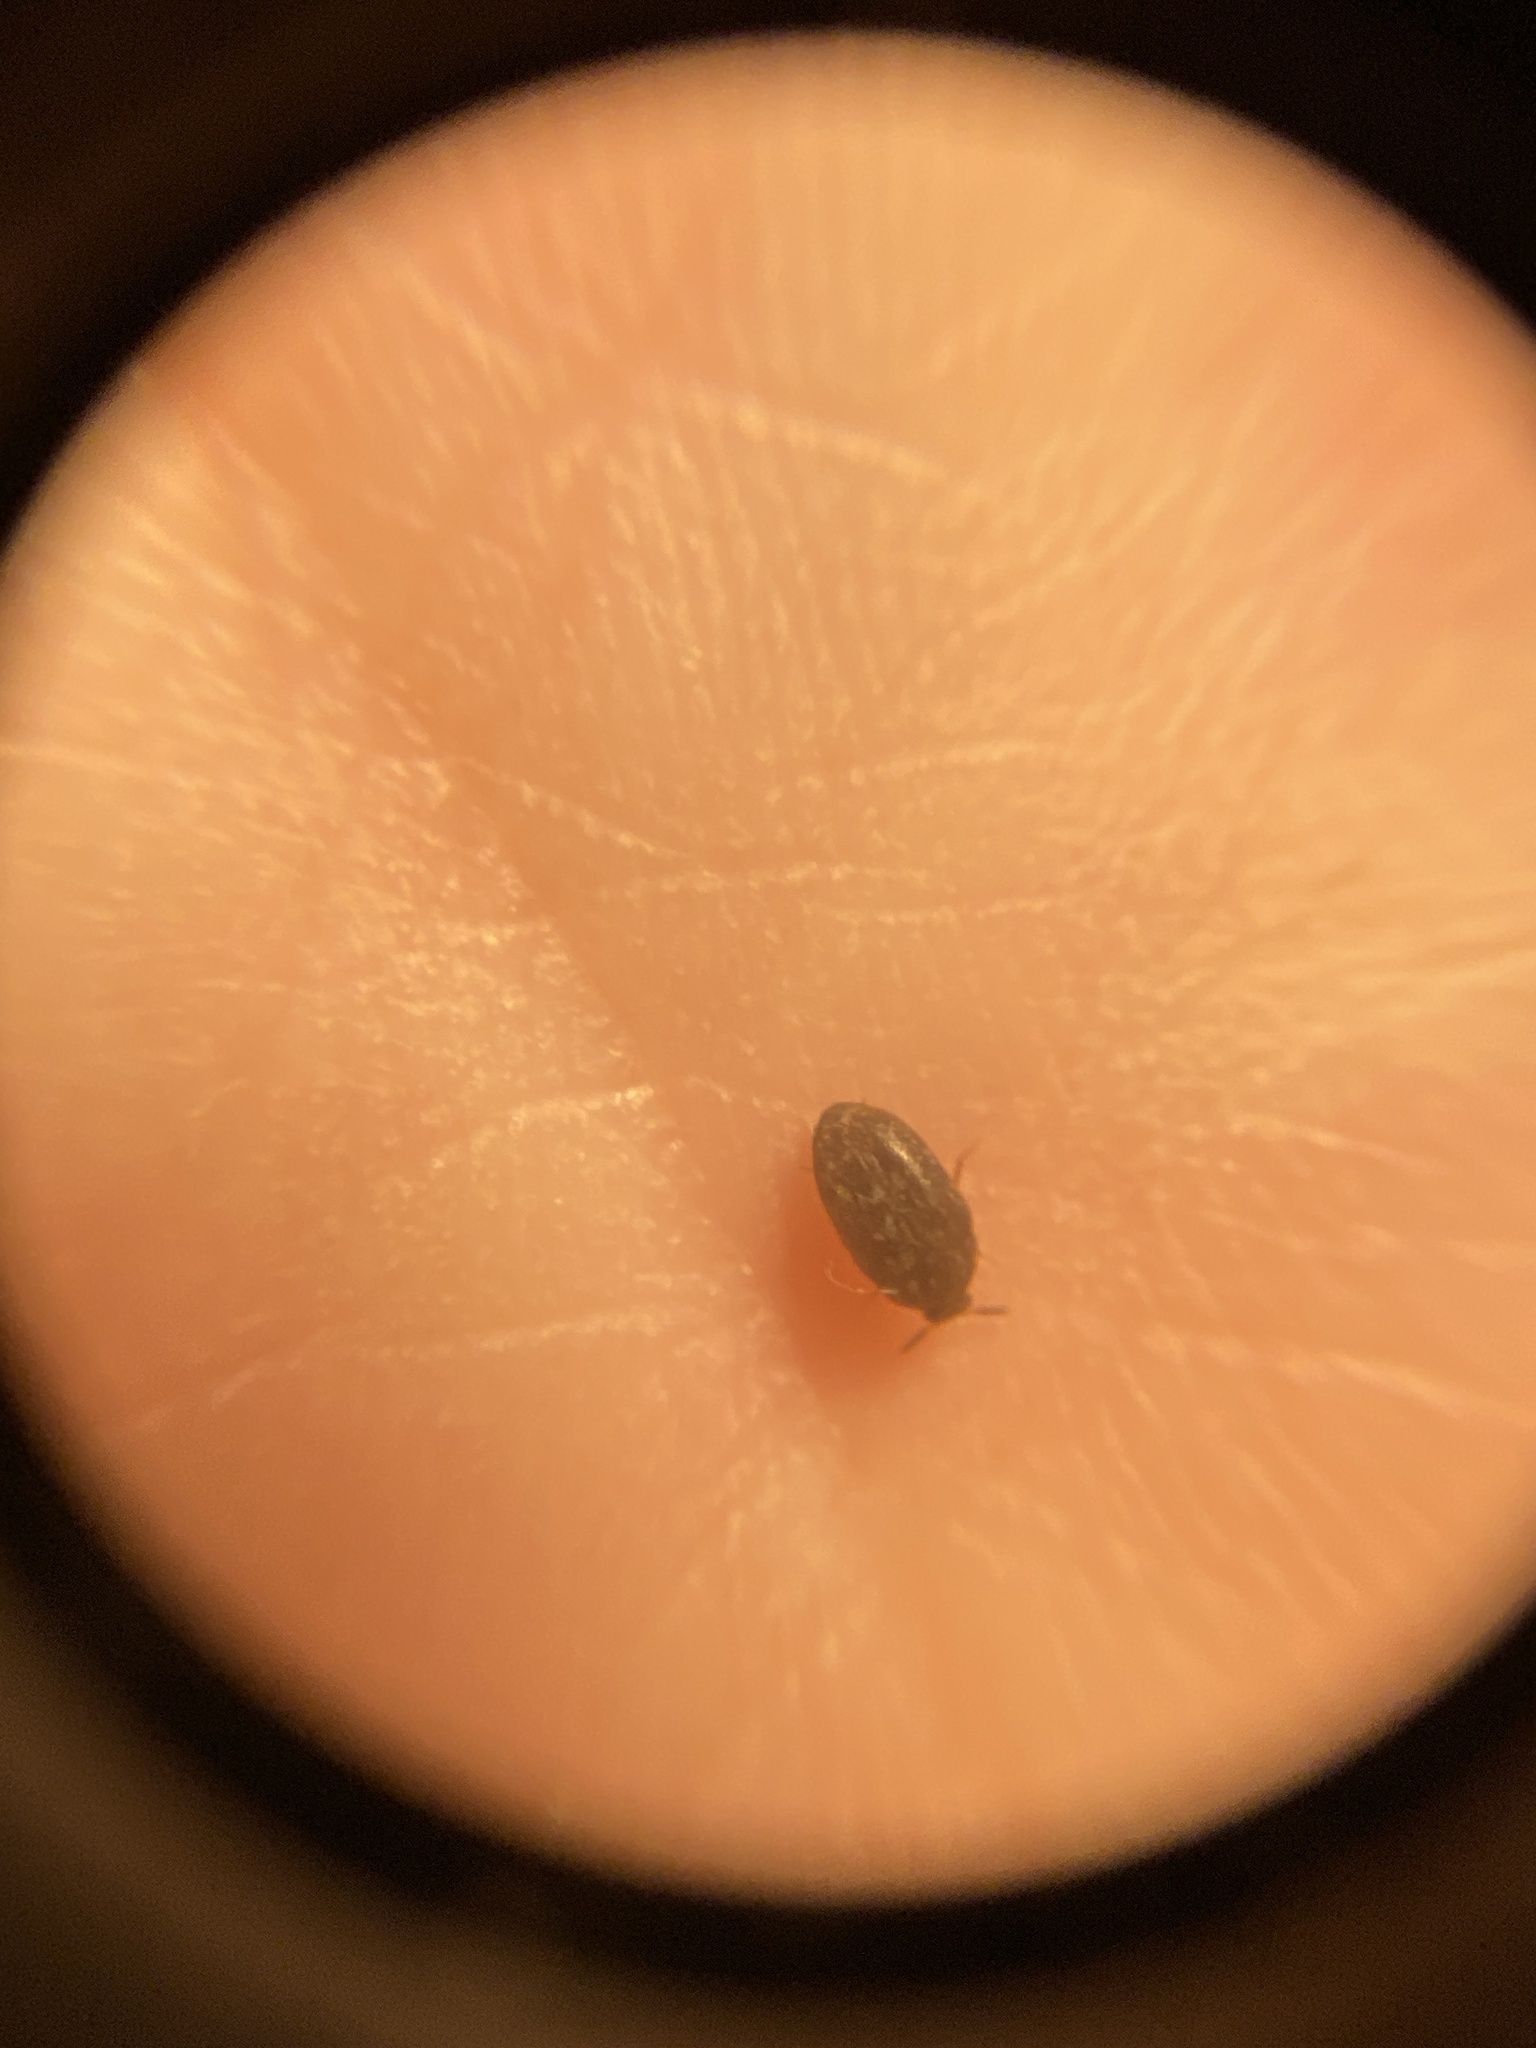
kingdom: Animalia
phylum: Arthropoda
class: Insecta
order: Coleoptera
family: Dermestidae
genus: Trogoderma
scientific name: Trogoderma glabrum
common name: Glabrous cabinet beetle
